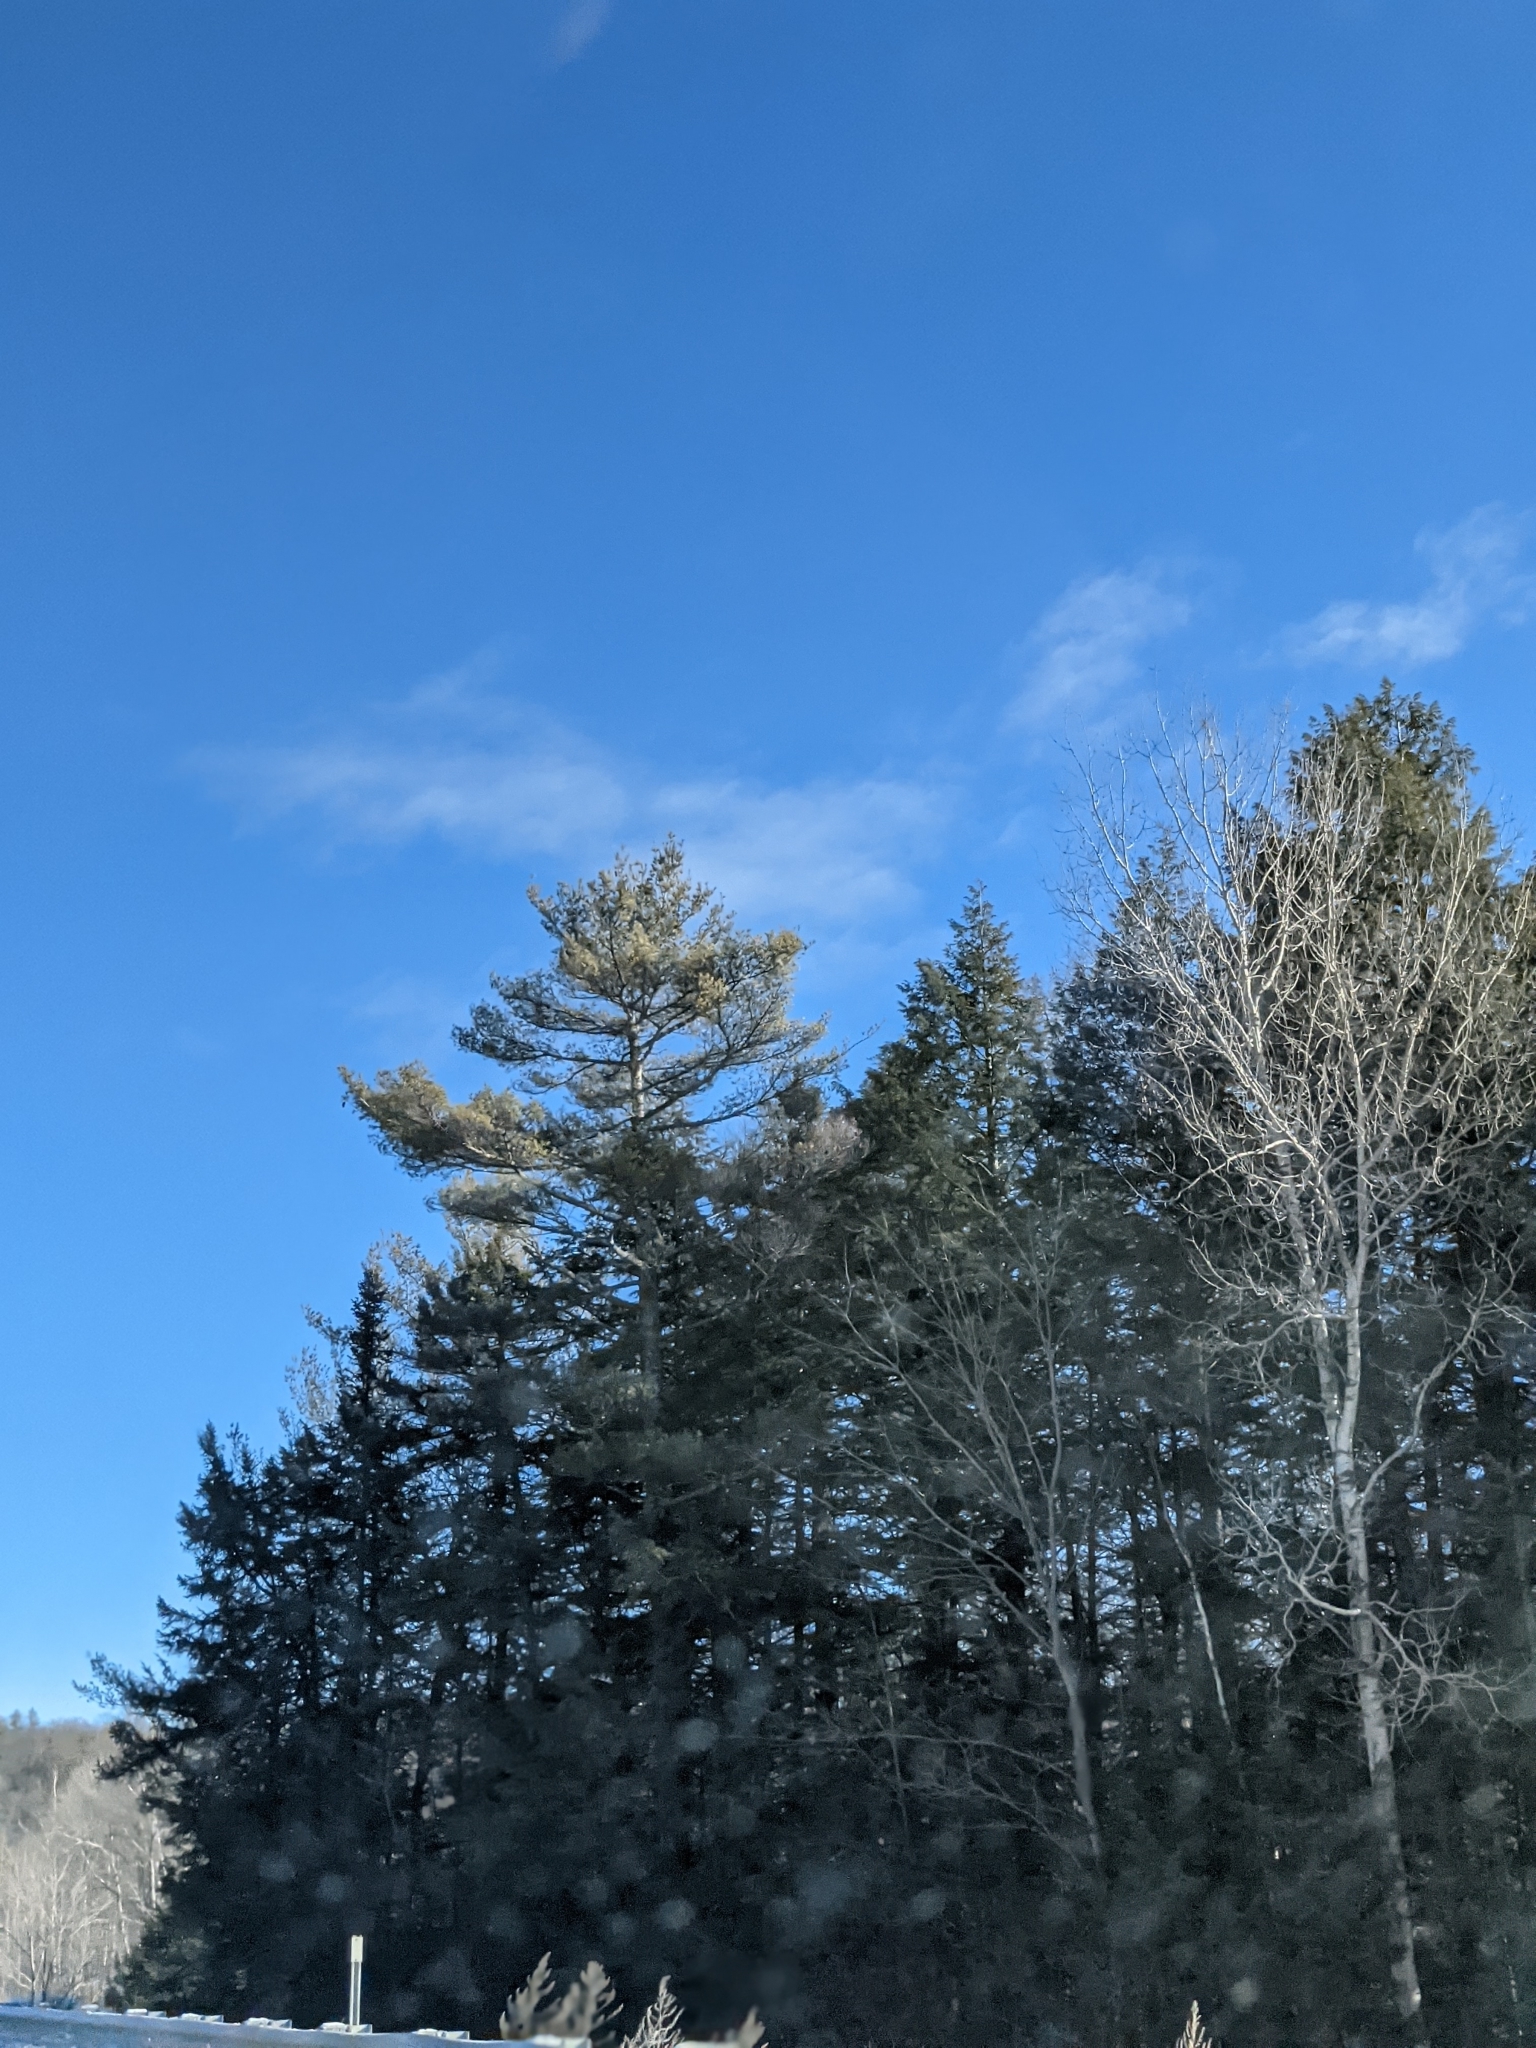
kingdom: Plantae
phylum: Tracheophyta
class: Pinopsida
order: Pinales
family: Pinaceae
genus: Pinus
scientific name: Pinus strobus
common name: Weymouth pine
